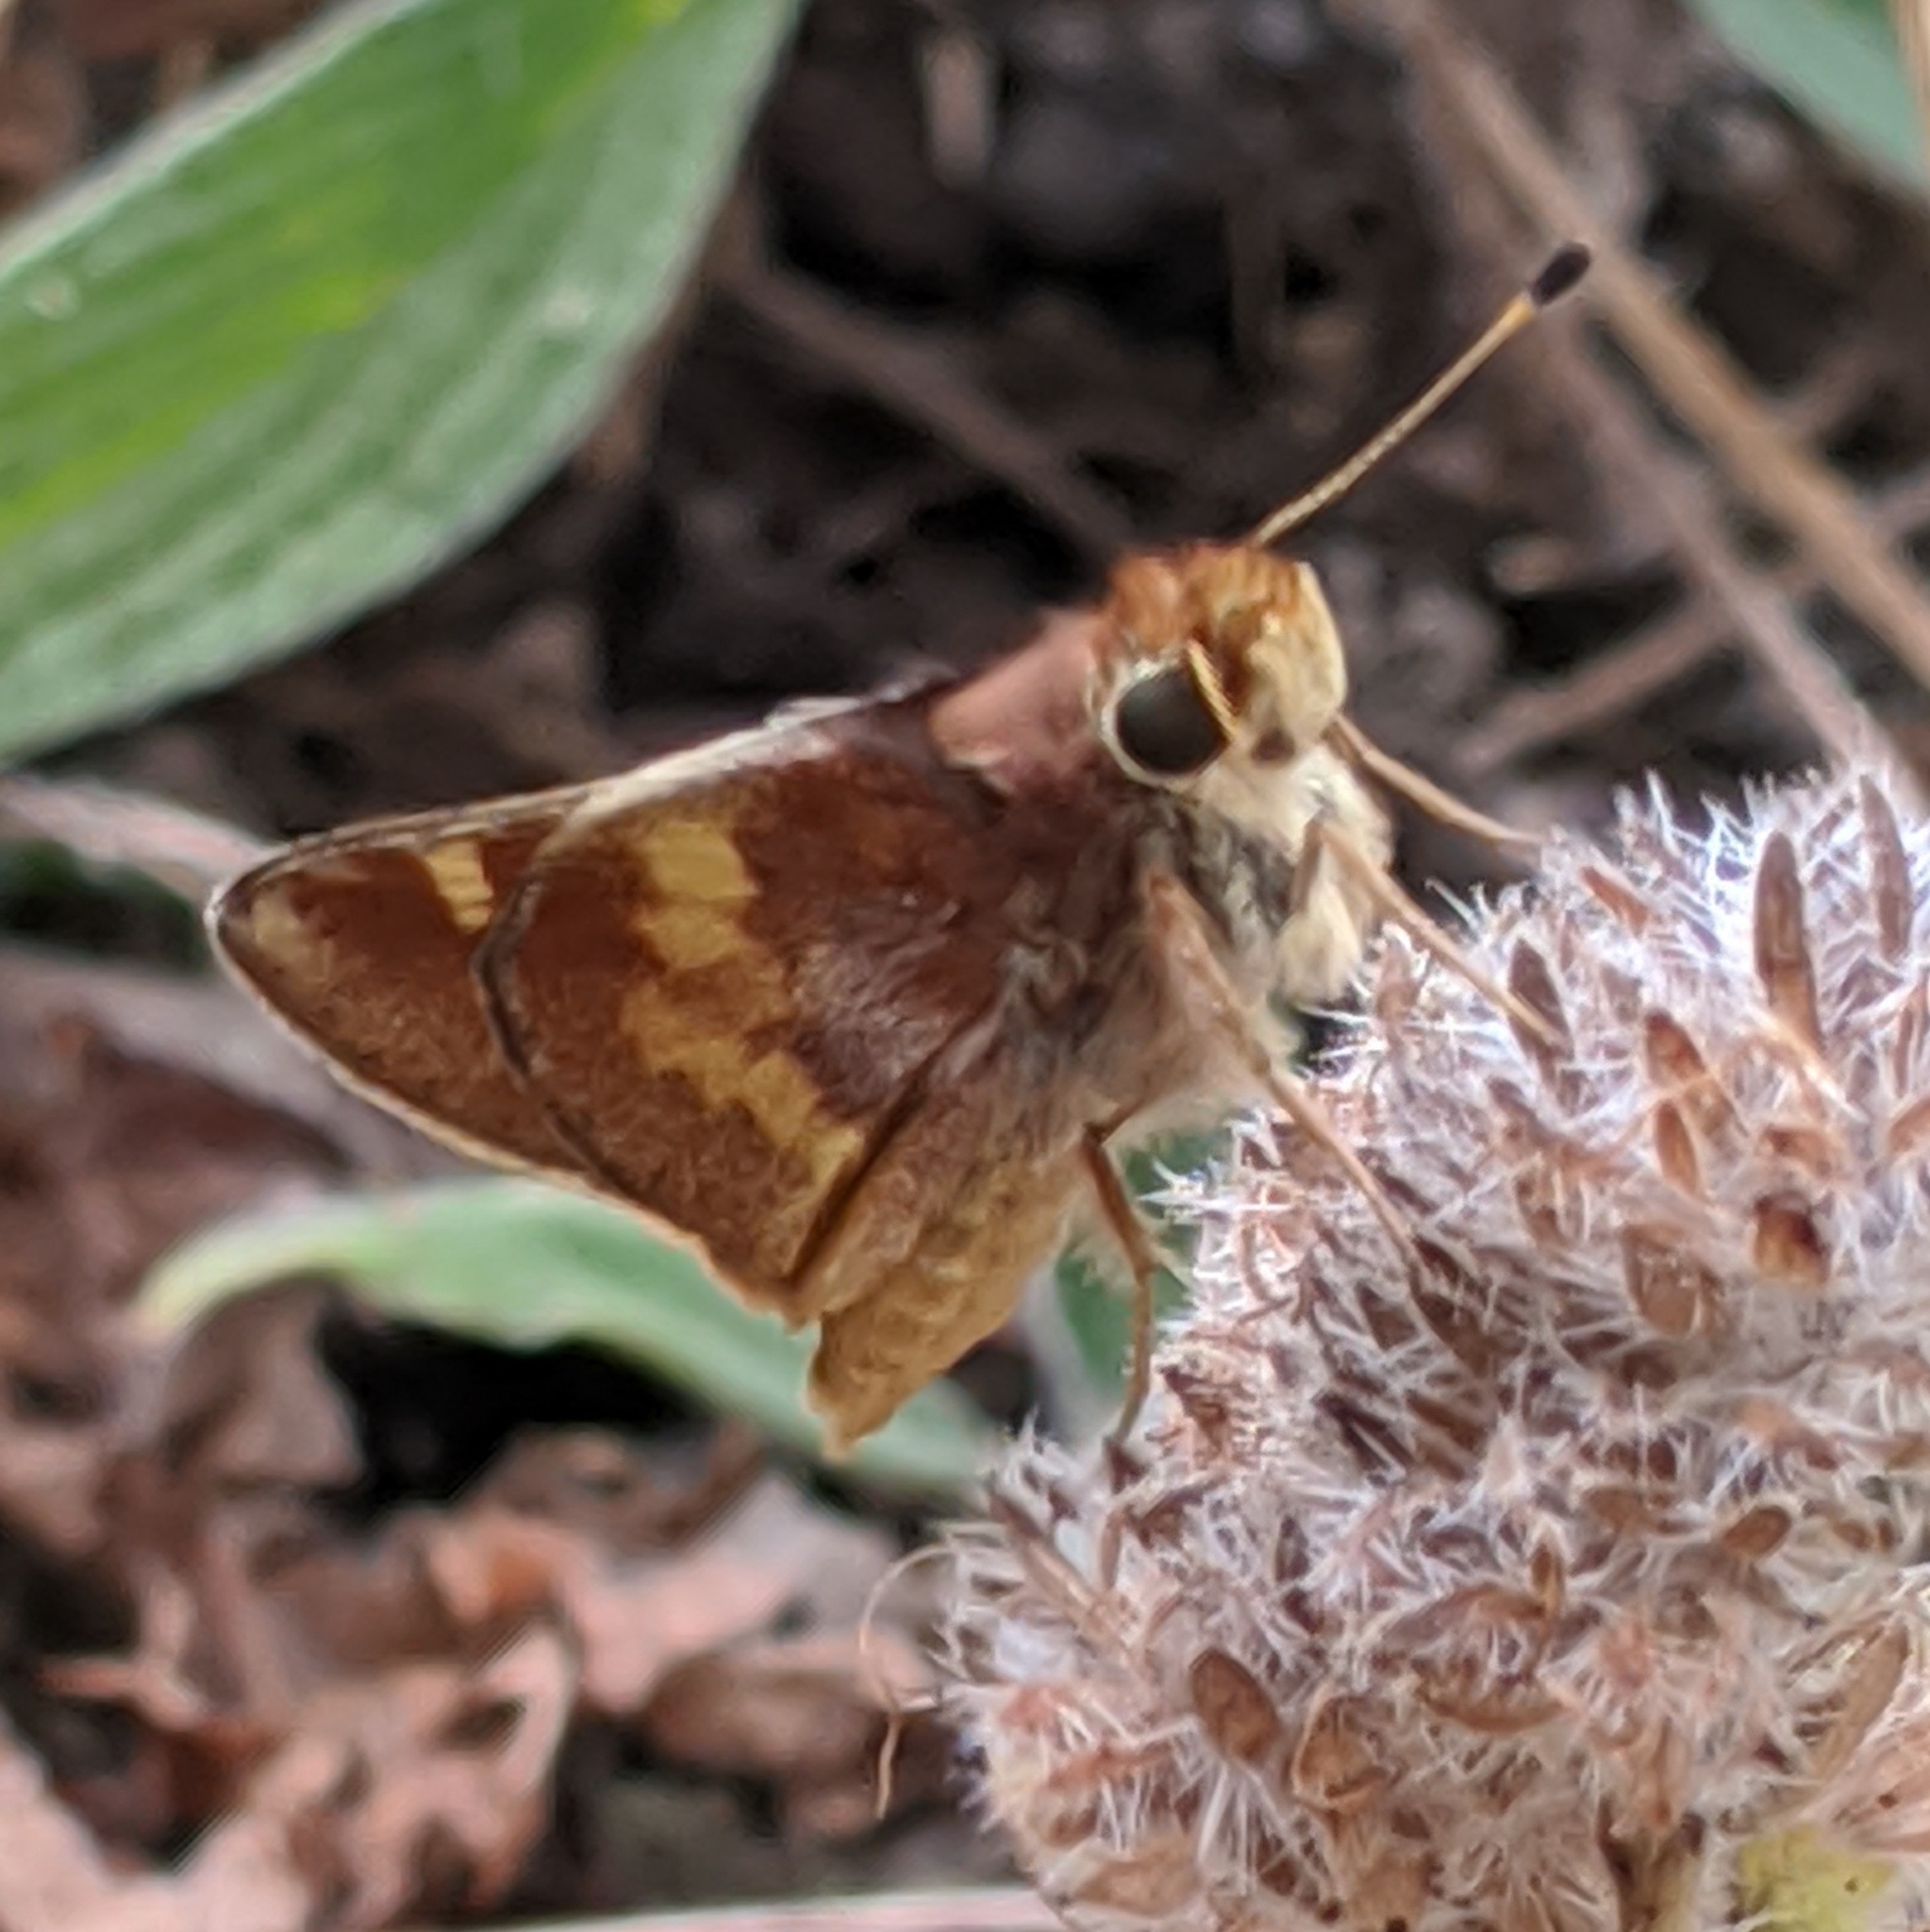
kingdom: Animalia
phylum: Arthropoda
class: Insecta
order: Lepidoptera
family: Hesperiidae
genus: Lon
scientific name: Lon melane
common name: Umber skipper
